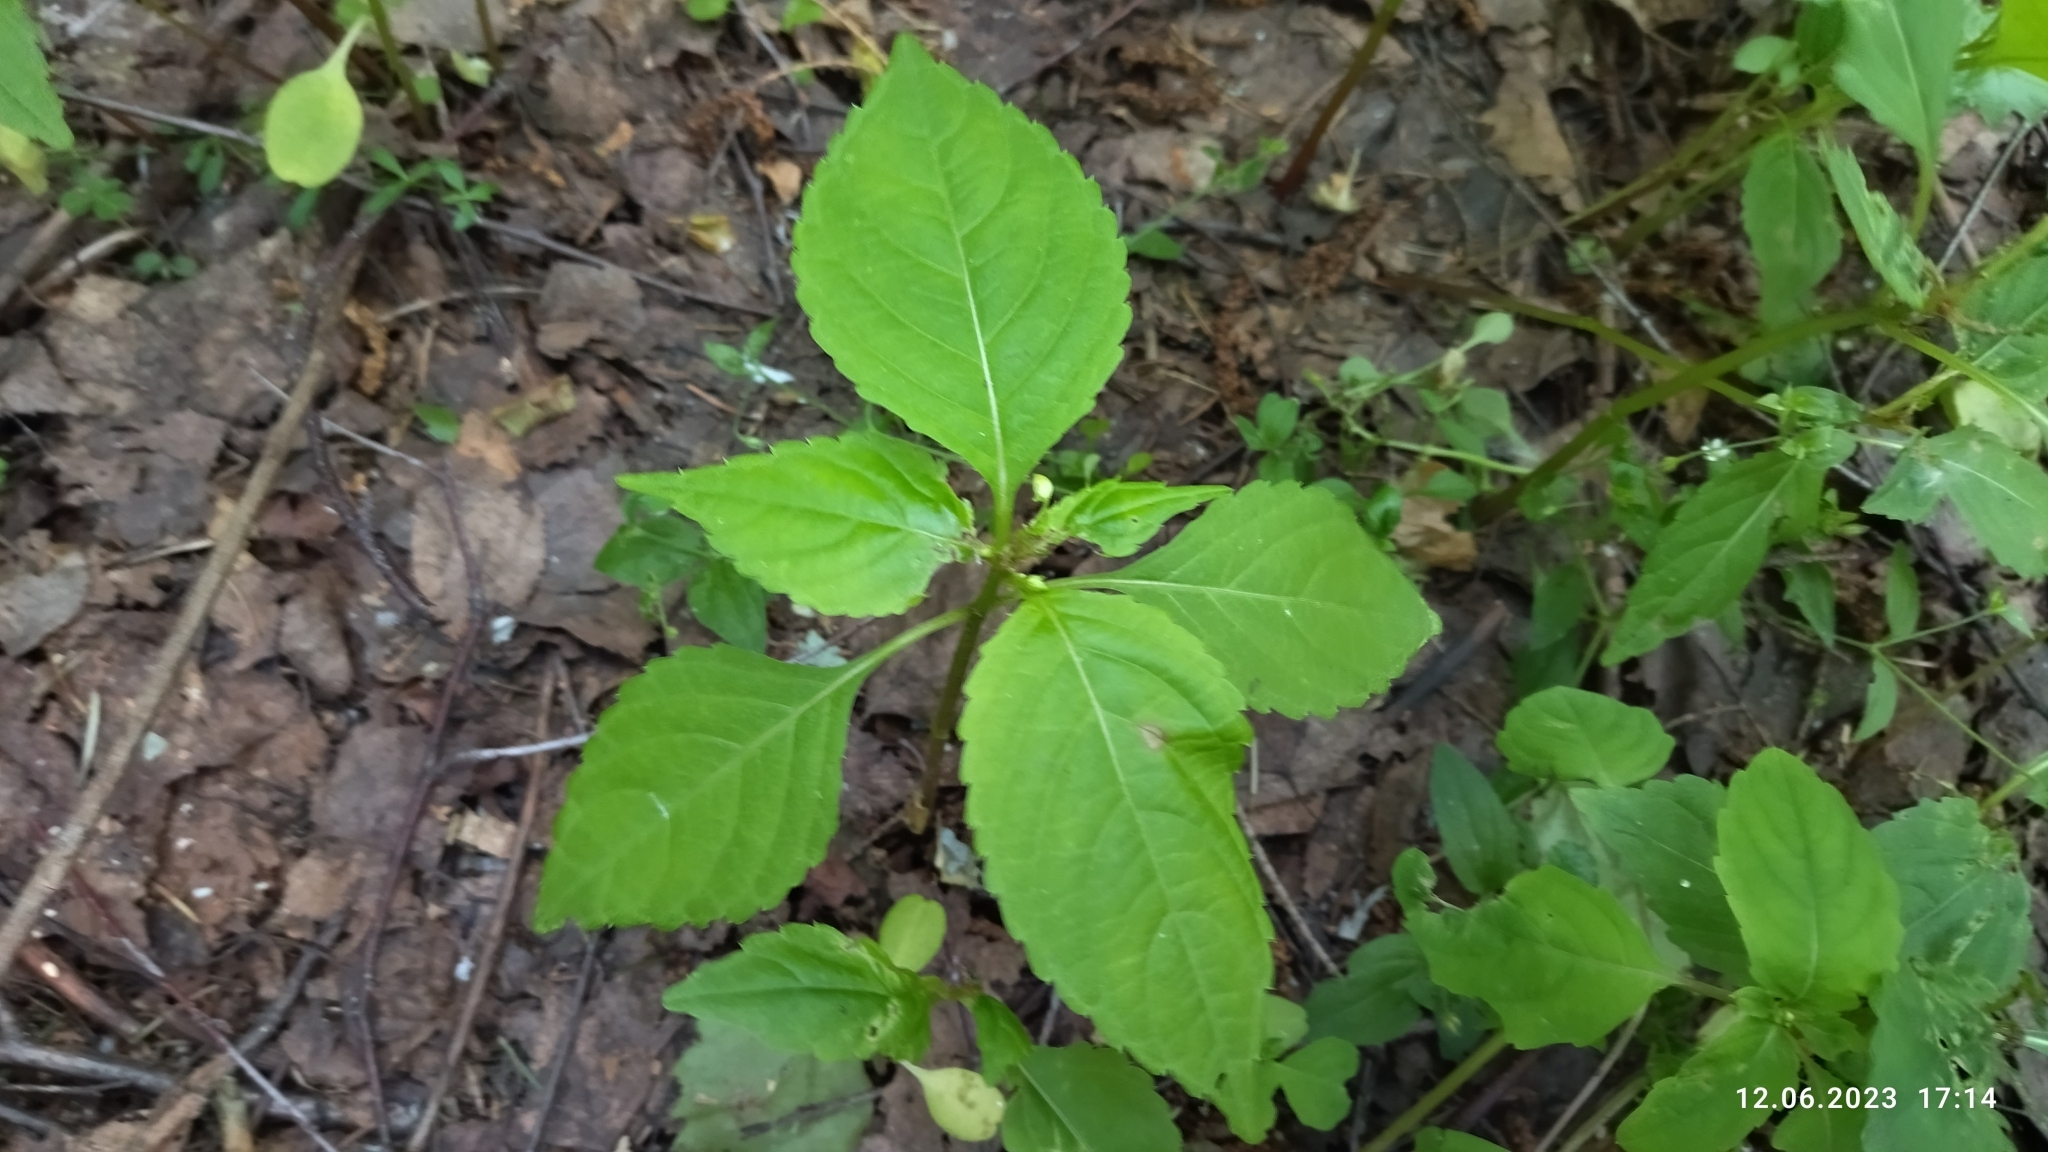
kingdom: Plantae
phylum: Tracheophyta
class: Magnoliopsida
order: Ericales
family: Balsaminaceae
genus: Impatiens
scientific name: Impatiens parviflora
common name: Small balsam
